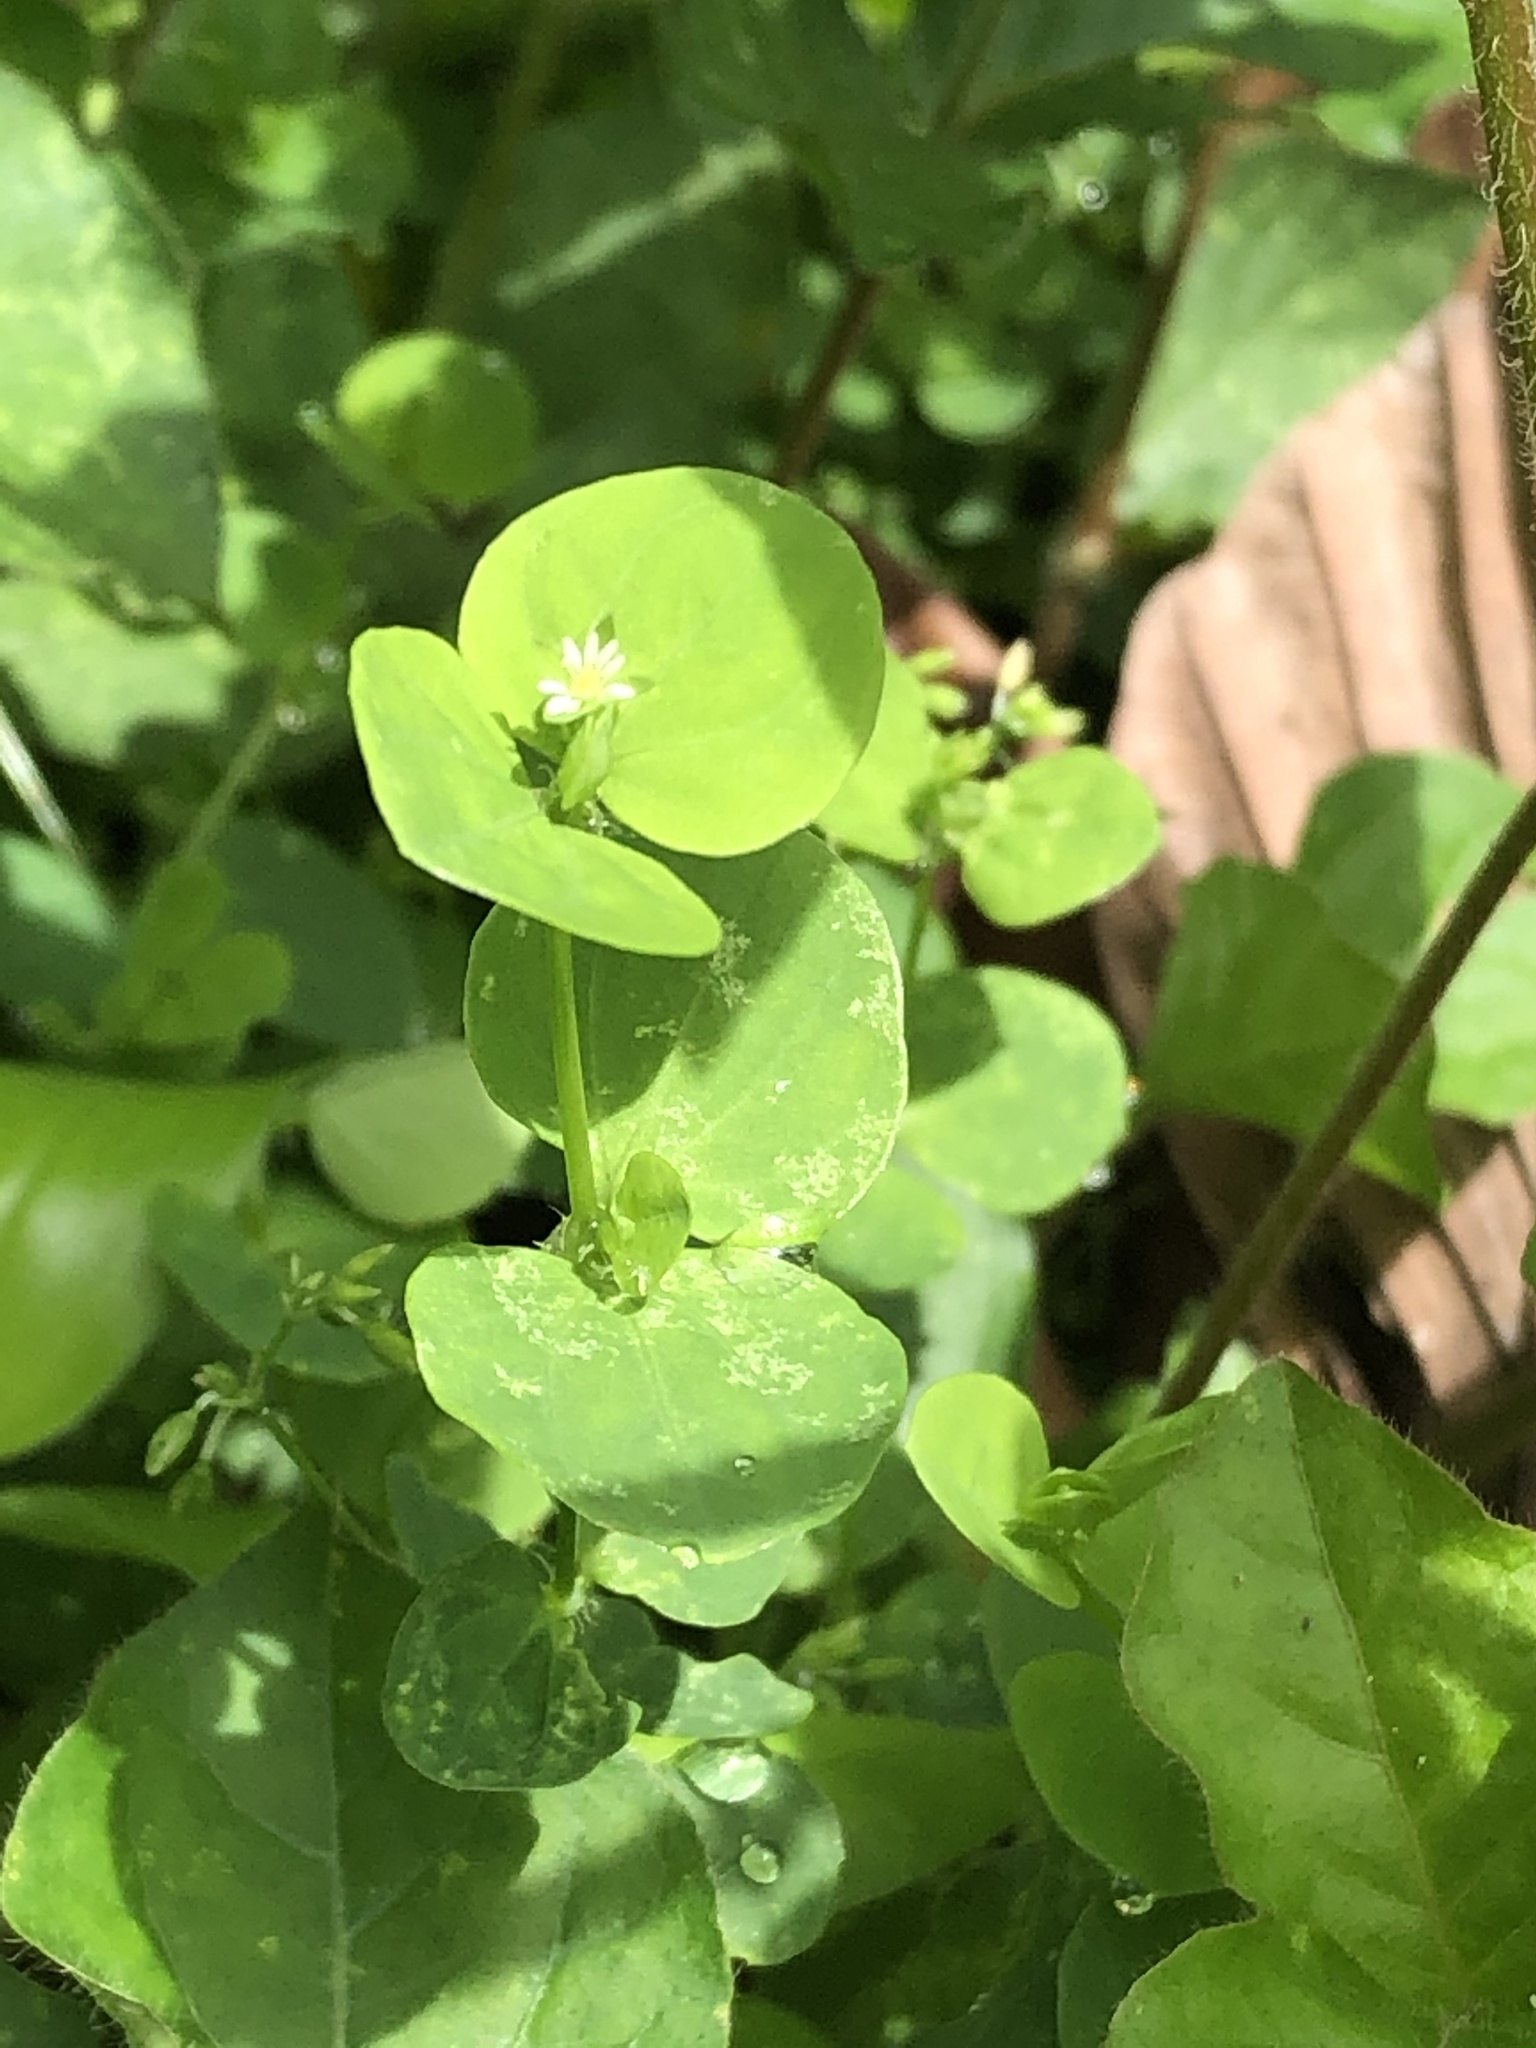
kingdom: Plantae
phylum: Tracheophyta
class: Magnoliopsida
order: Caryophyllales
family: Caryophyllaceae
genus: Drymaria
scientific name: Drymaria ladewii
